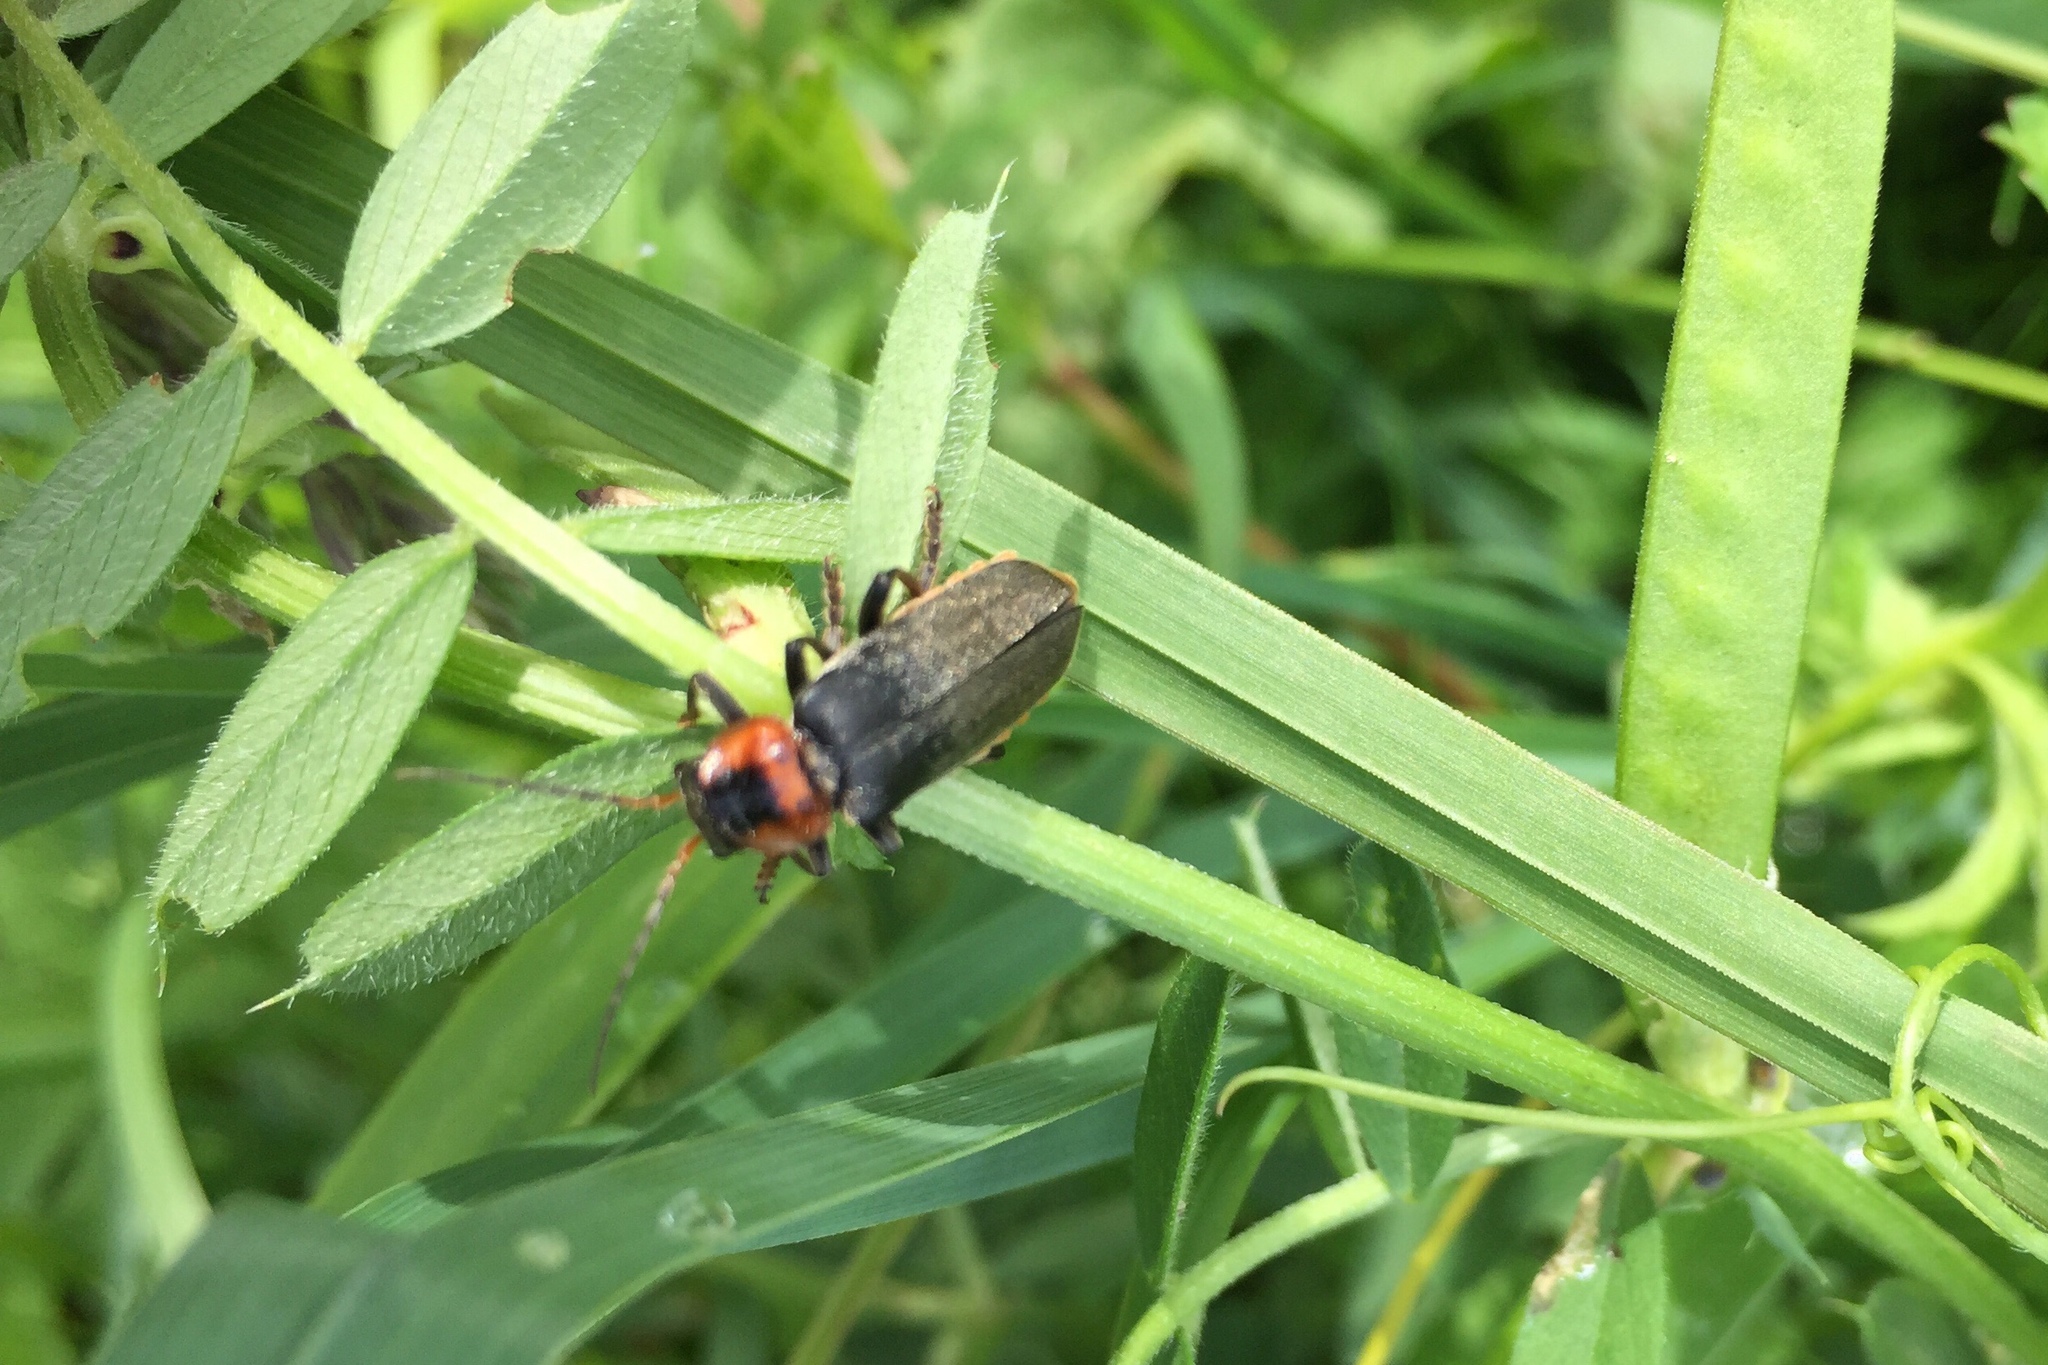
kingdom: Animalia
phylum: Arthropoda
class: Insecta
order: Coleoptera
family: Cantharidae
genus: Cantharis
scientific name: Cantharis fusca
